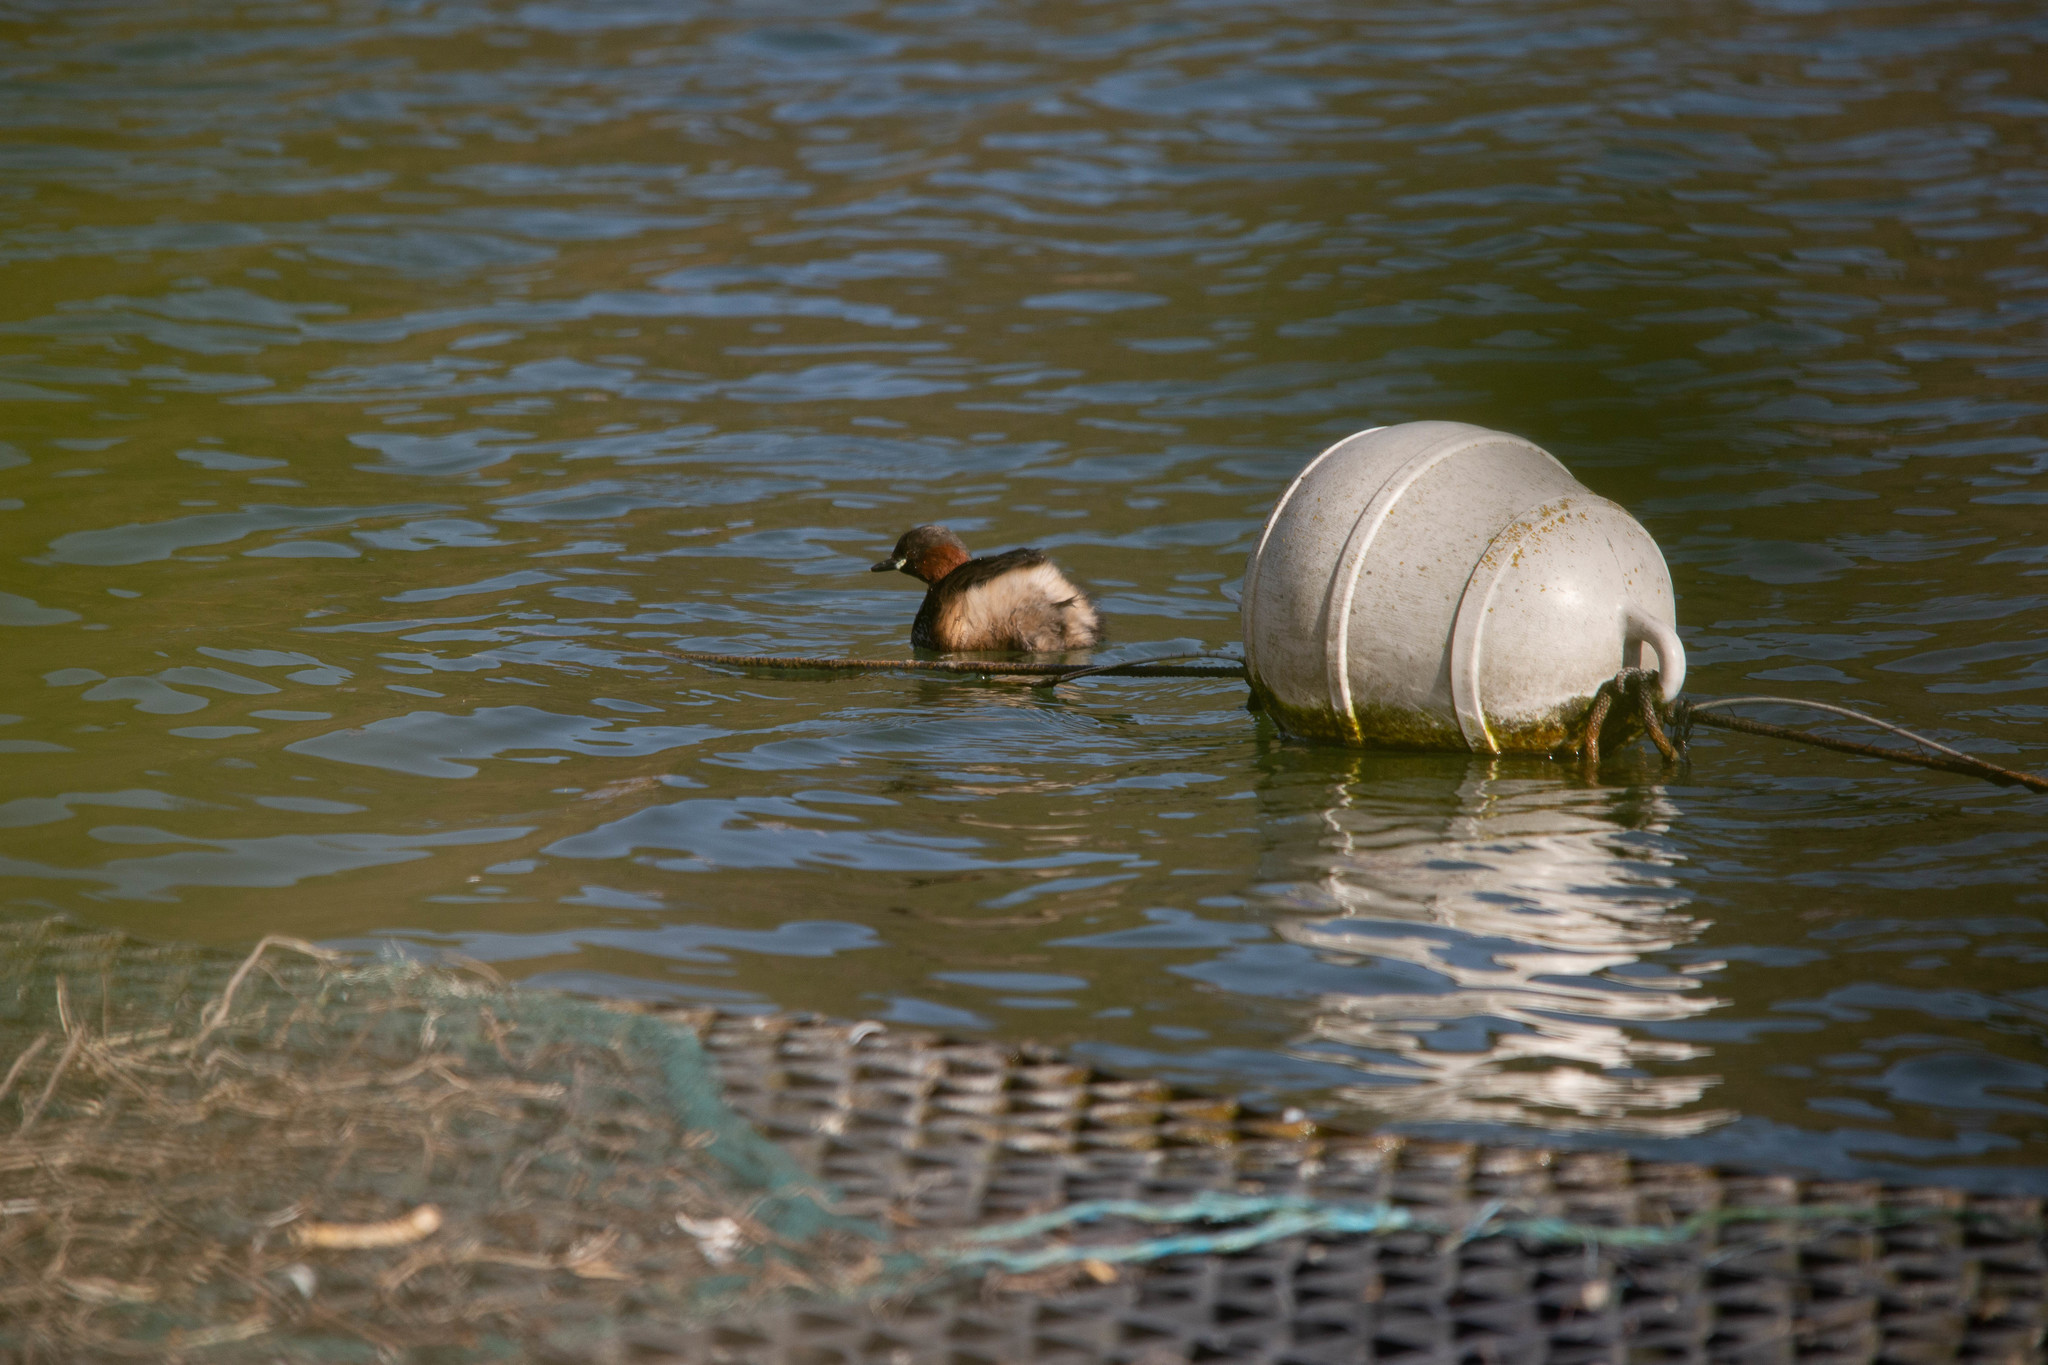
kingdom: Animalia
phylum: Chordata
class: Aves
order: Podicipediformes
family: Podicipedidae
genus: Tachybaptus
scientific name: Tachybaptus ruficollis
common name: Little grebe
